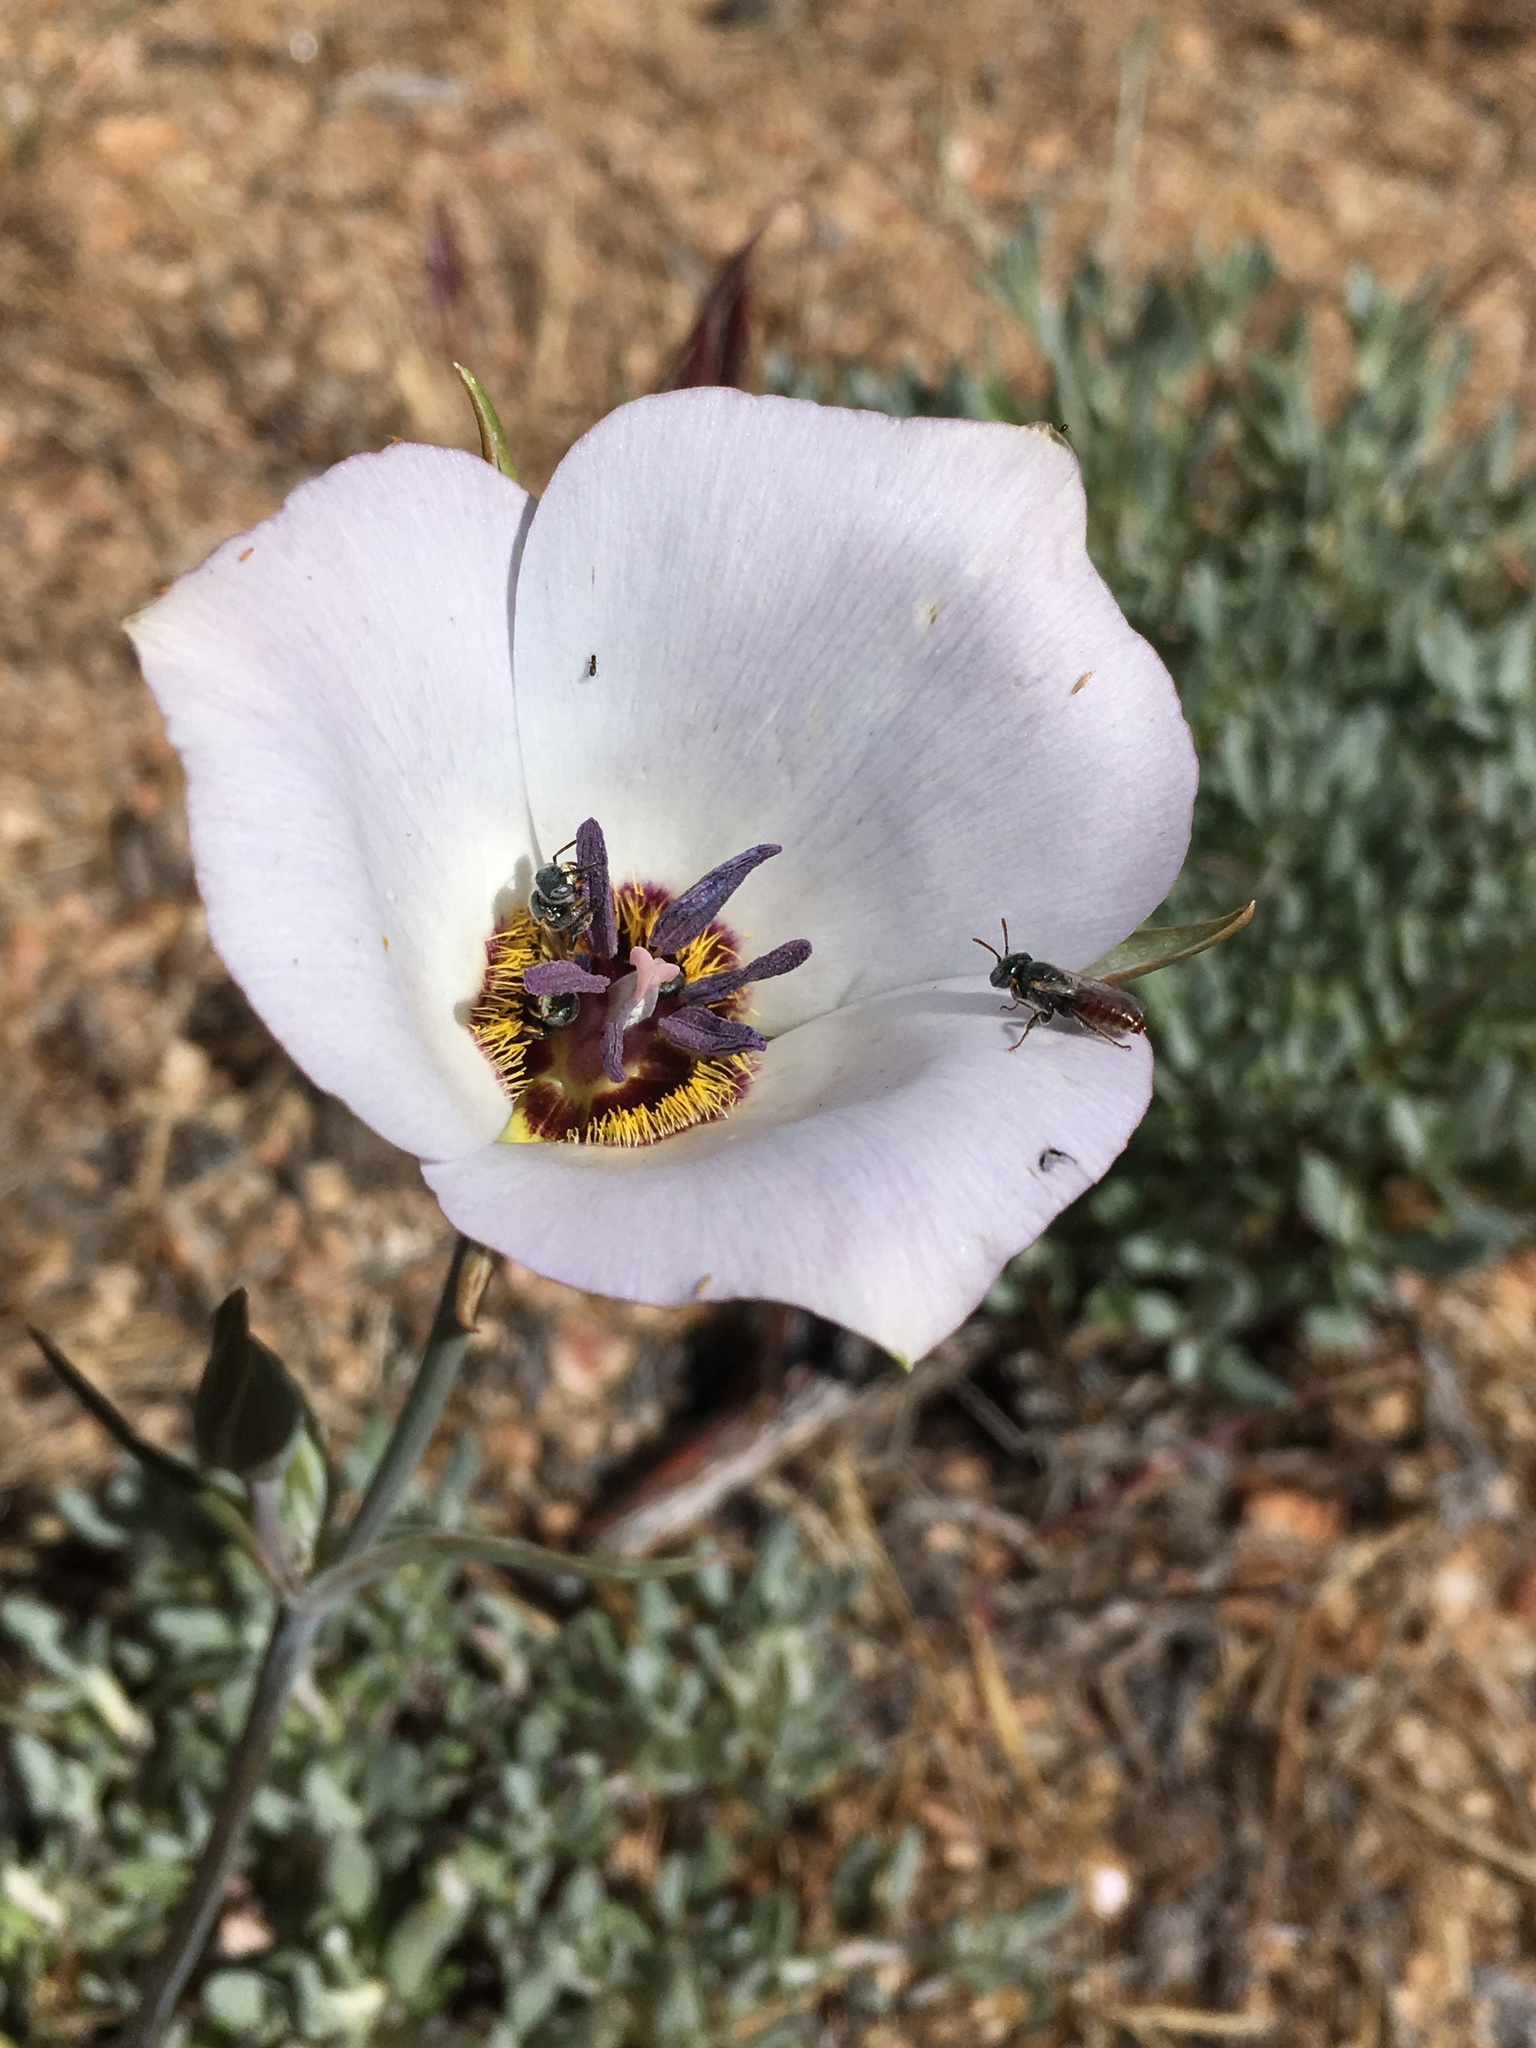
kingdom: Plantae
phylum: Tracheophyta
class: Liliopsida
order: Liliales
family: Liliaceae
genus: Calochortus
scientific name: Calochortus invenustus
